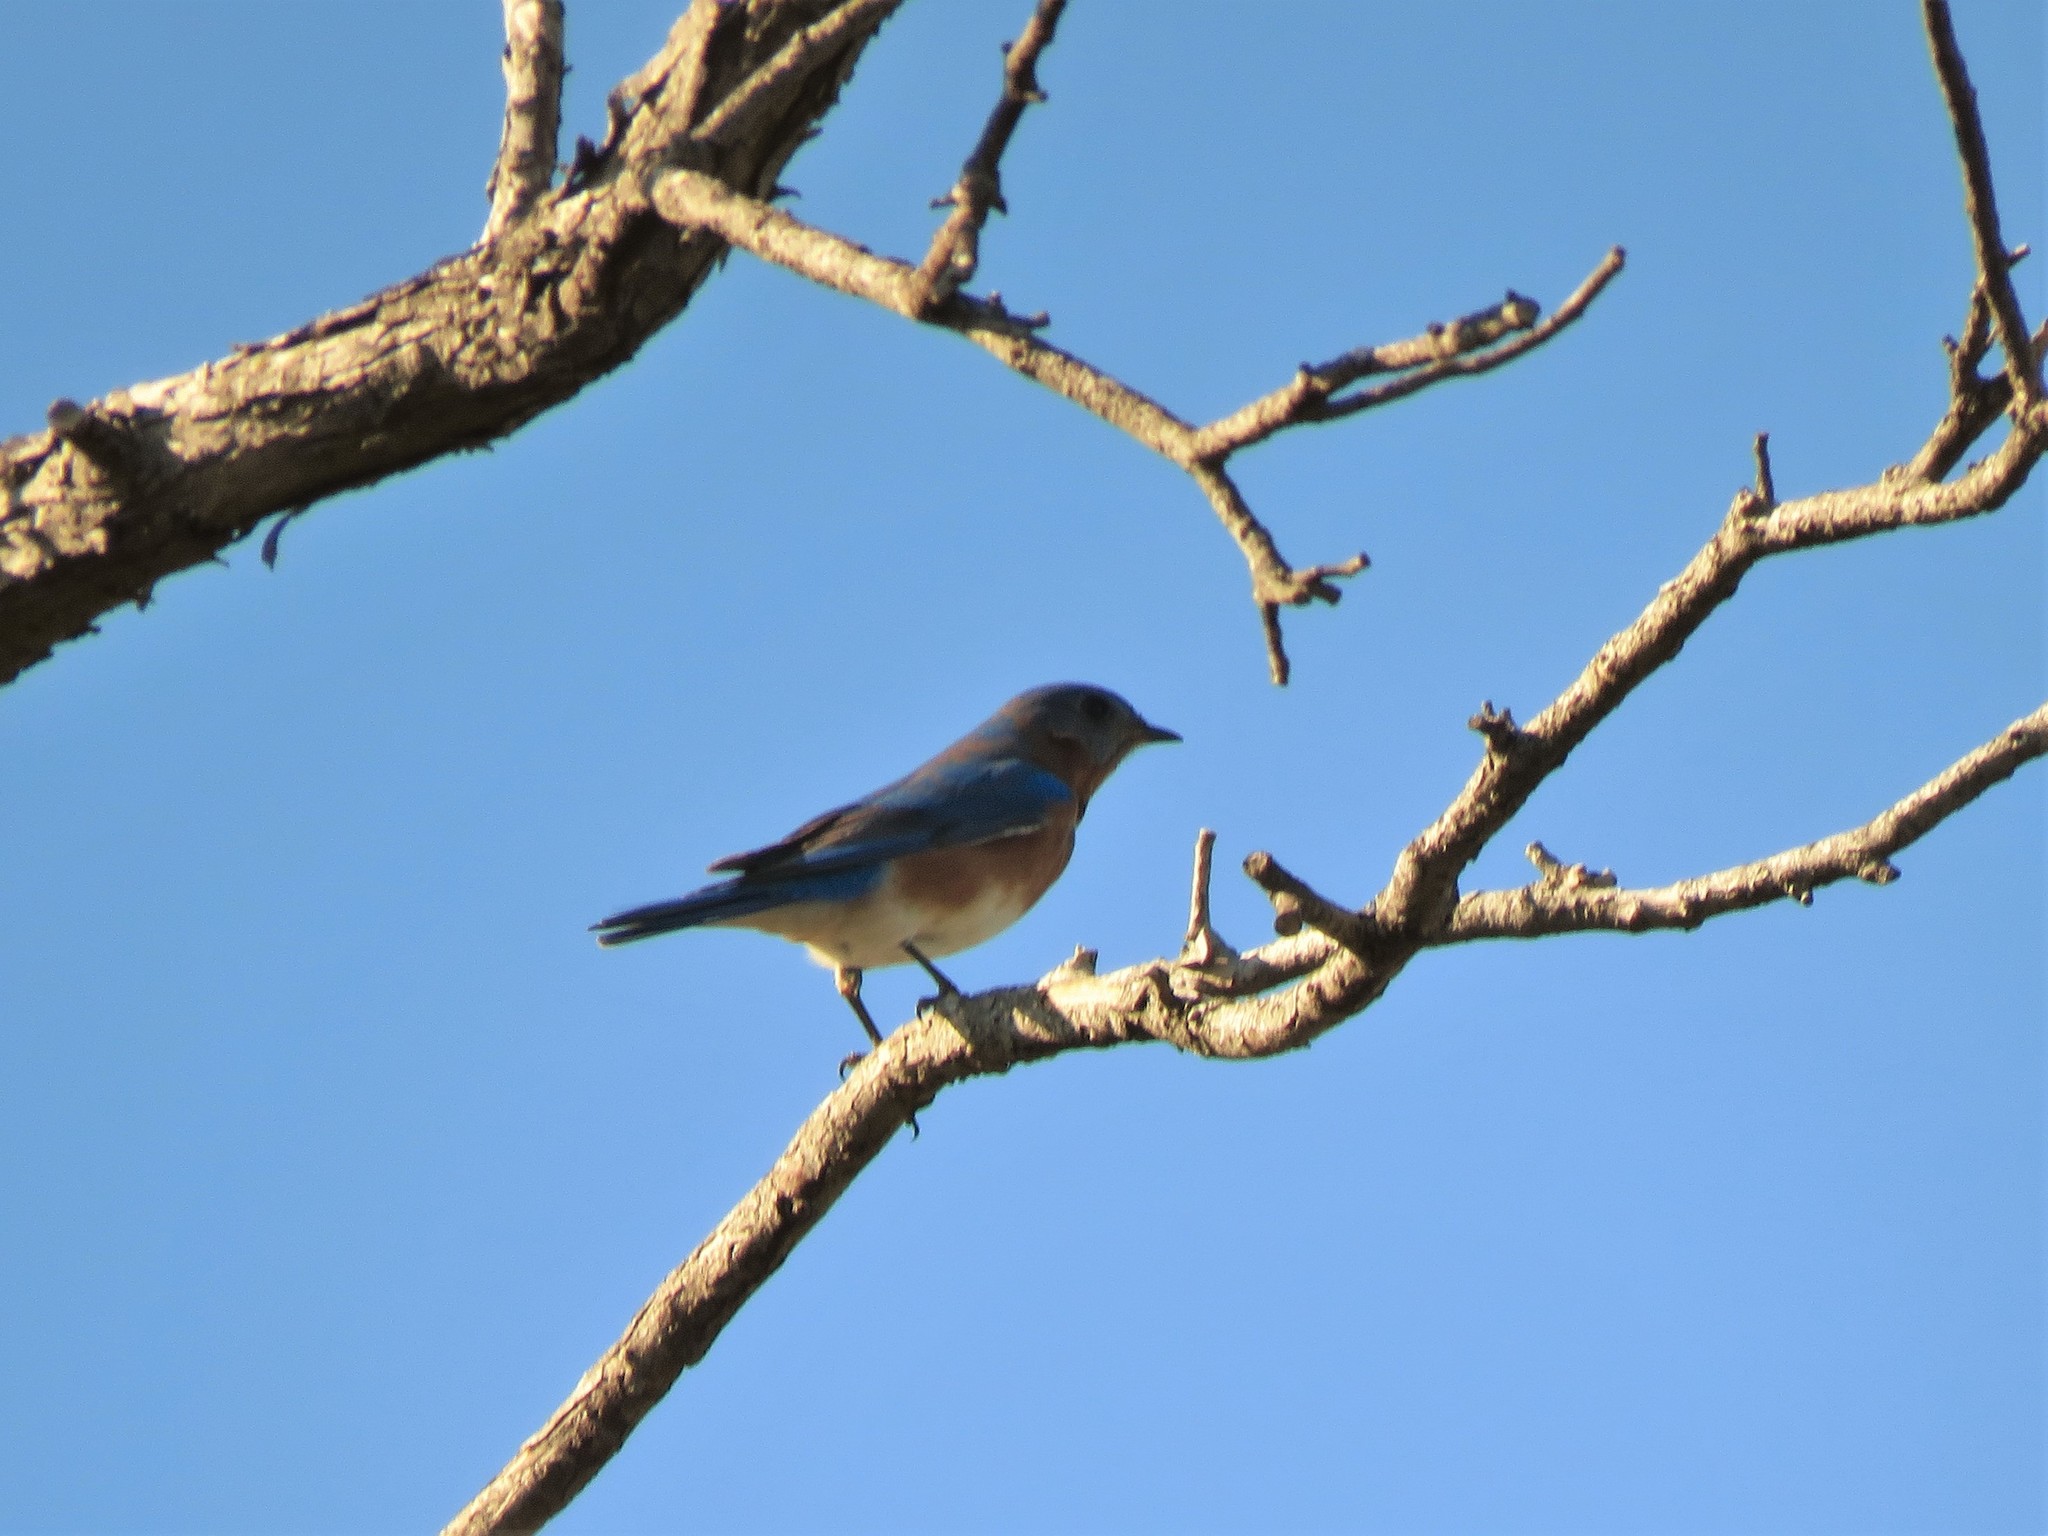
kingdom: Animalia
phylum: Chordata
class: Aves
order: Passeriformes
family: Turdidae
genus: Sialia
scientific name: Sialia sialis
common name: Eastern bluebird
